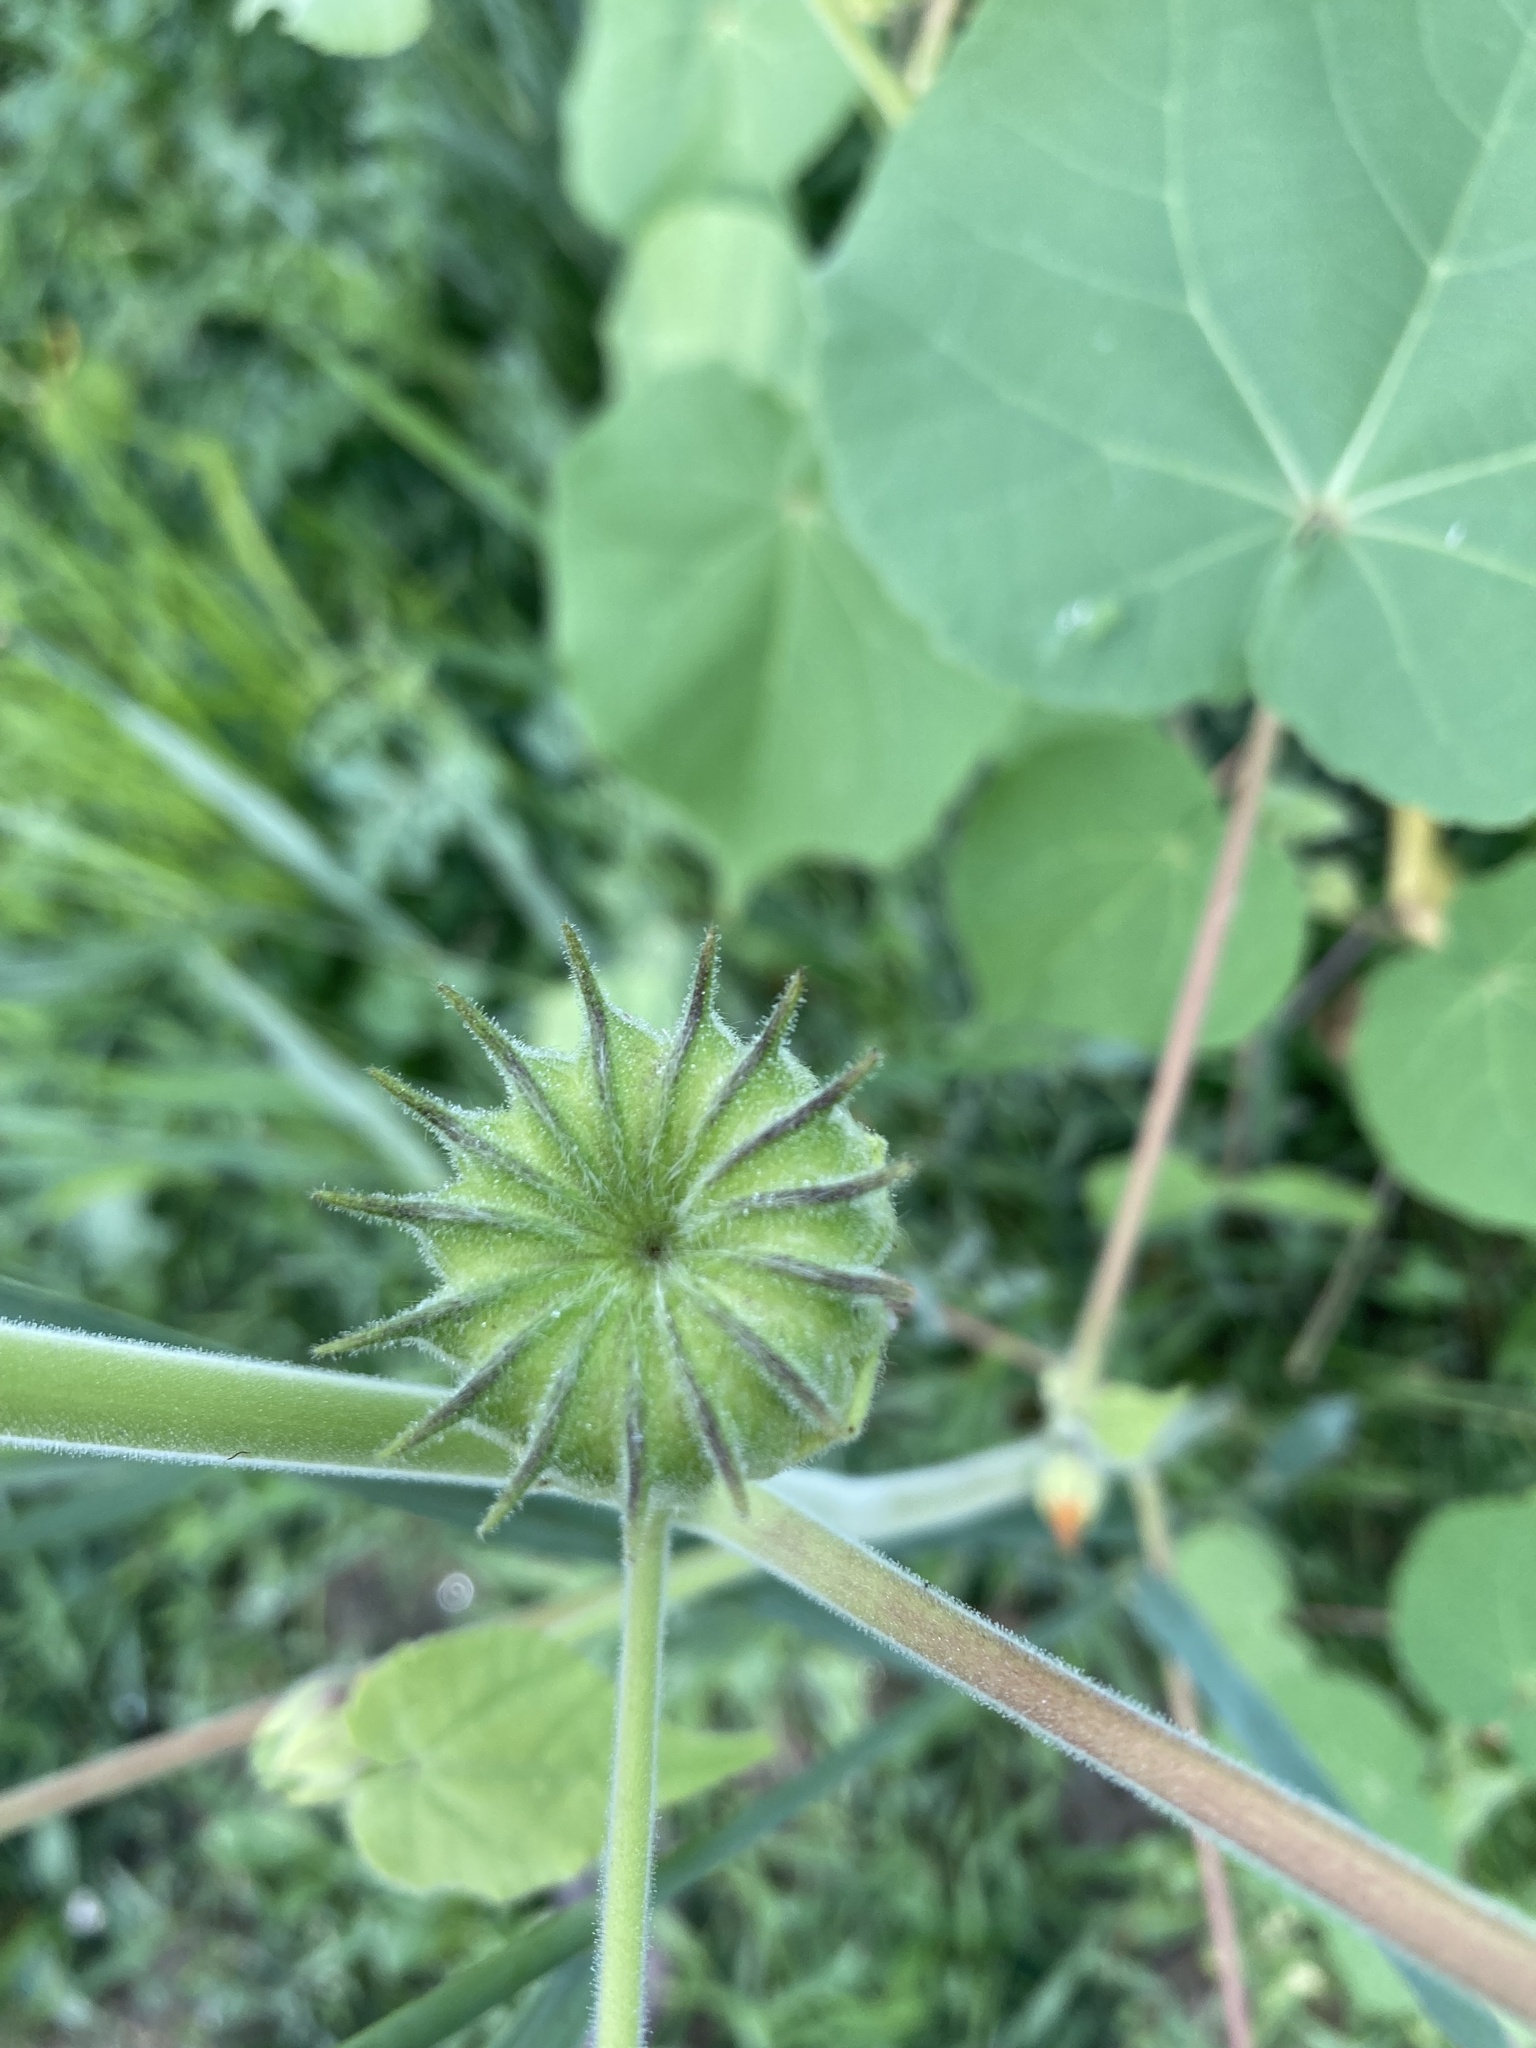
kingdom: Plantae
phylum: Tracheophyta
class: Magnoliopsida
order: Malvales
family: Malvaceae
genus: Abutilon
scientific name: Abutilon theophrasti
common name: Velvetleaf
